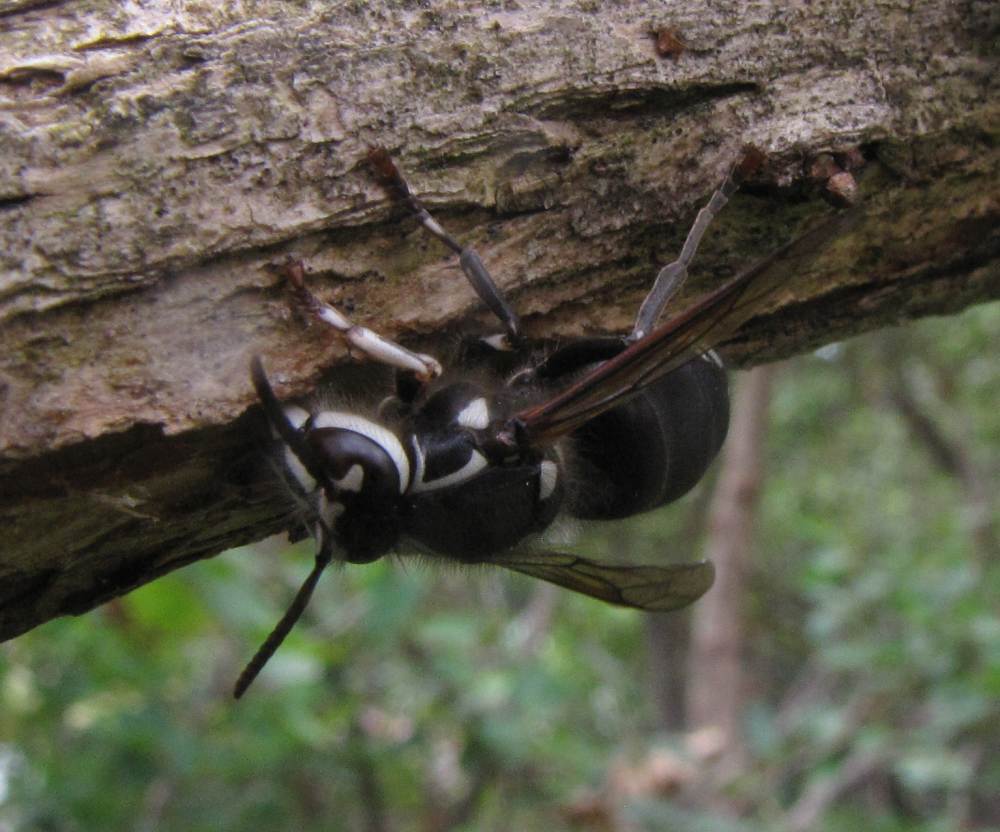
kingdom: Animalia
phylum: Arthropoda
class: Insecta
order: Hymenoptera
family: Vespidae
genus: Dolichovespula
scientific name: Dolichovespula maculata
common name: Bald-faced hornet
